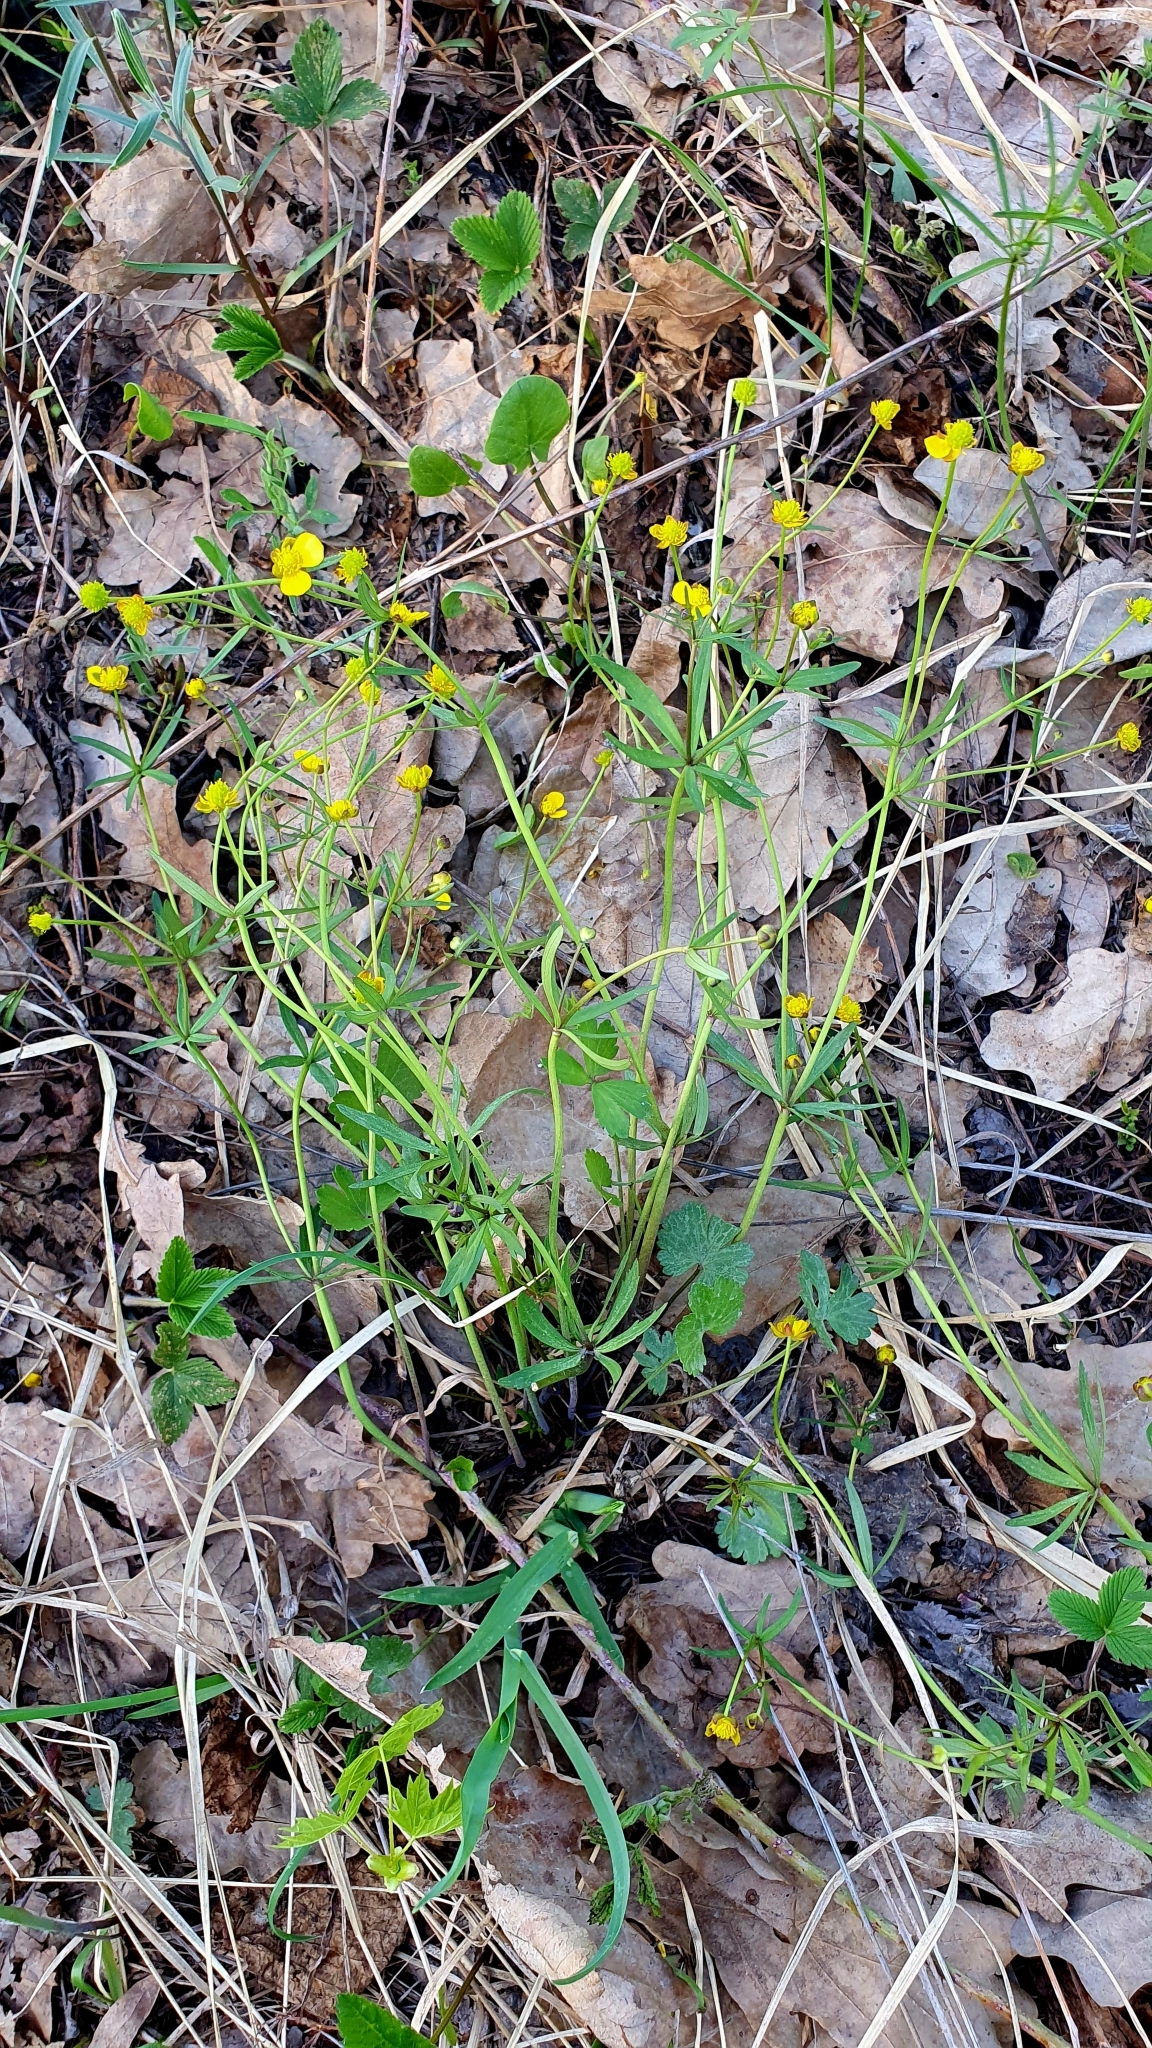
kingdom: Plantae
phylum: Tracheophyta
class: Magnoliopsida
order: Ranunculales
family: Ranunculaceae
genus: Ranunculus
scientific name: Ranunculus auricomus
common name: Goldilocks buttercup
